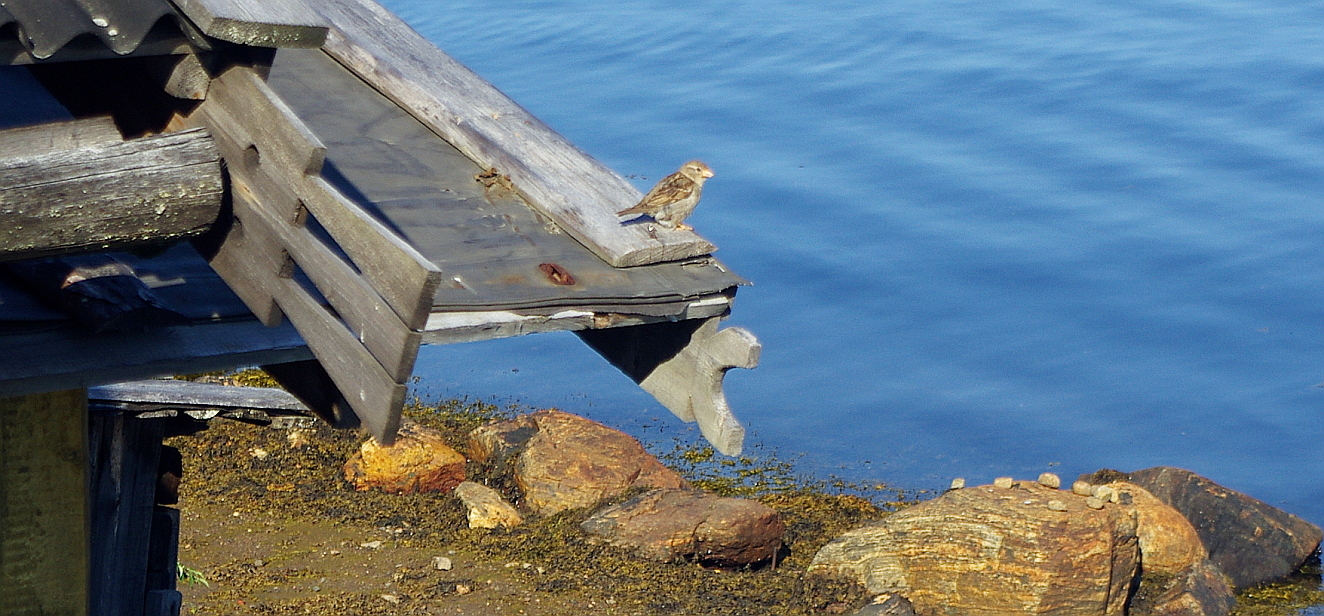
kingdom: Animalia
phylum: Chordata
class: Aves
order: Passeriformes
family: Passeridae
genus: Passer
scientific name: Passer domesticus
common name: House sparrow
